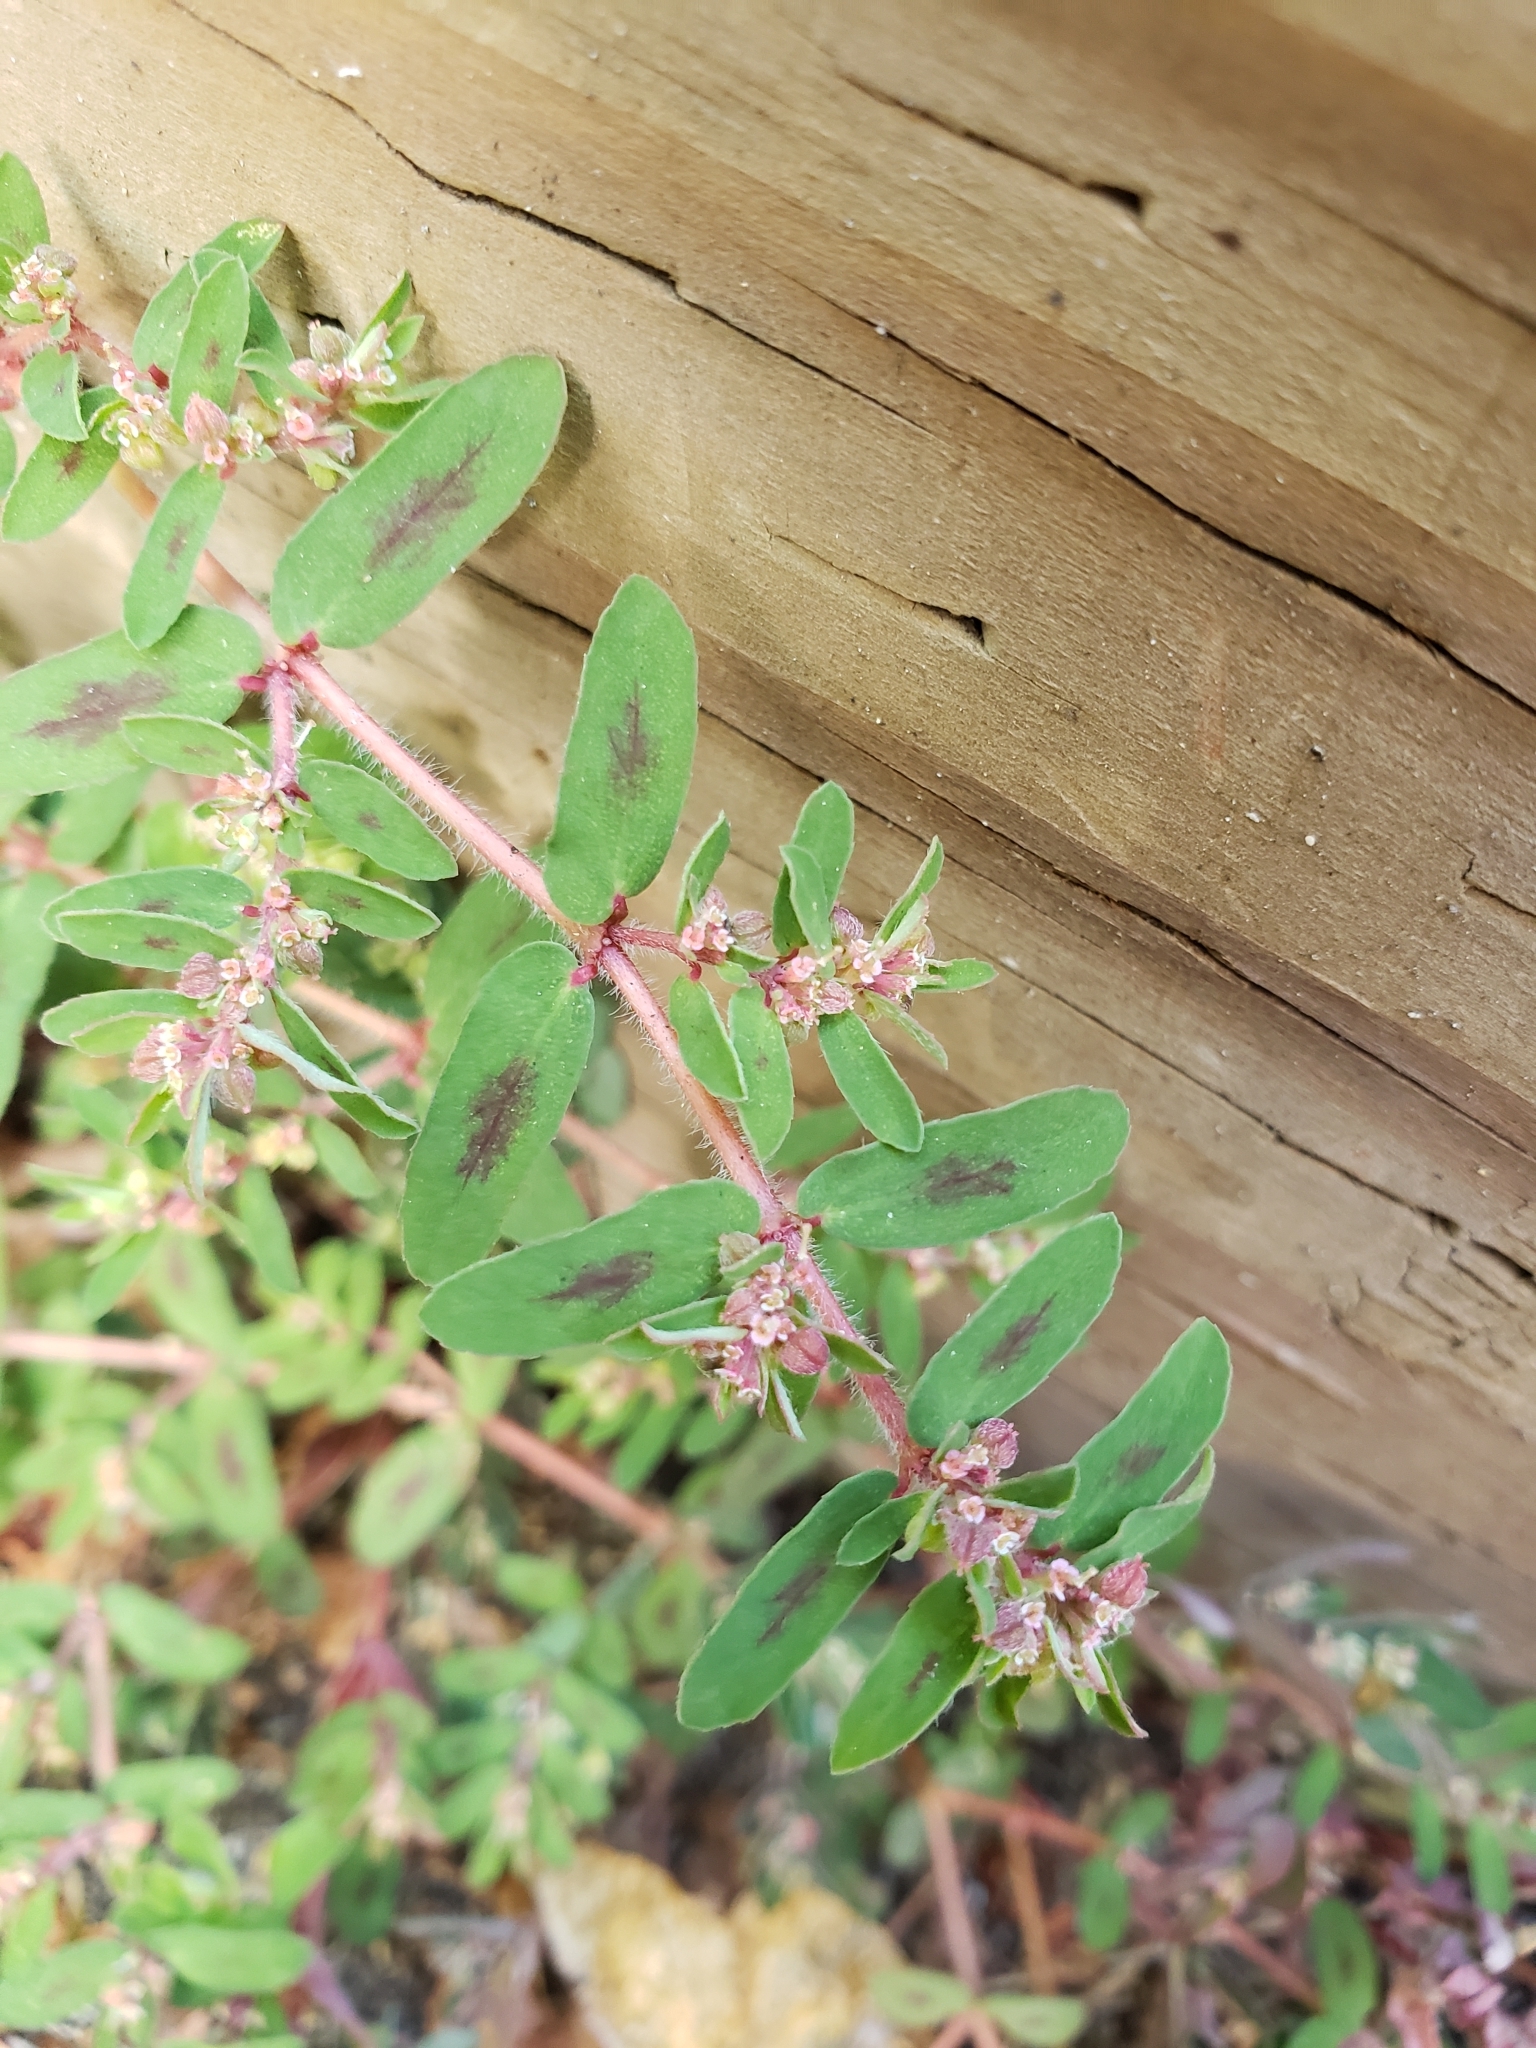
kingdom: Plantae
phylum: Tracheophyta
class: Magnoliopsida
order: Malpighiales
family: Euphorbiaceae
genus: Euphorbia
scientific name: Euphorbia maculata
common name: Spotted spurge
